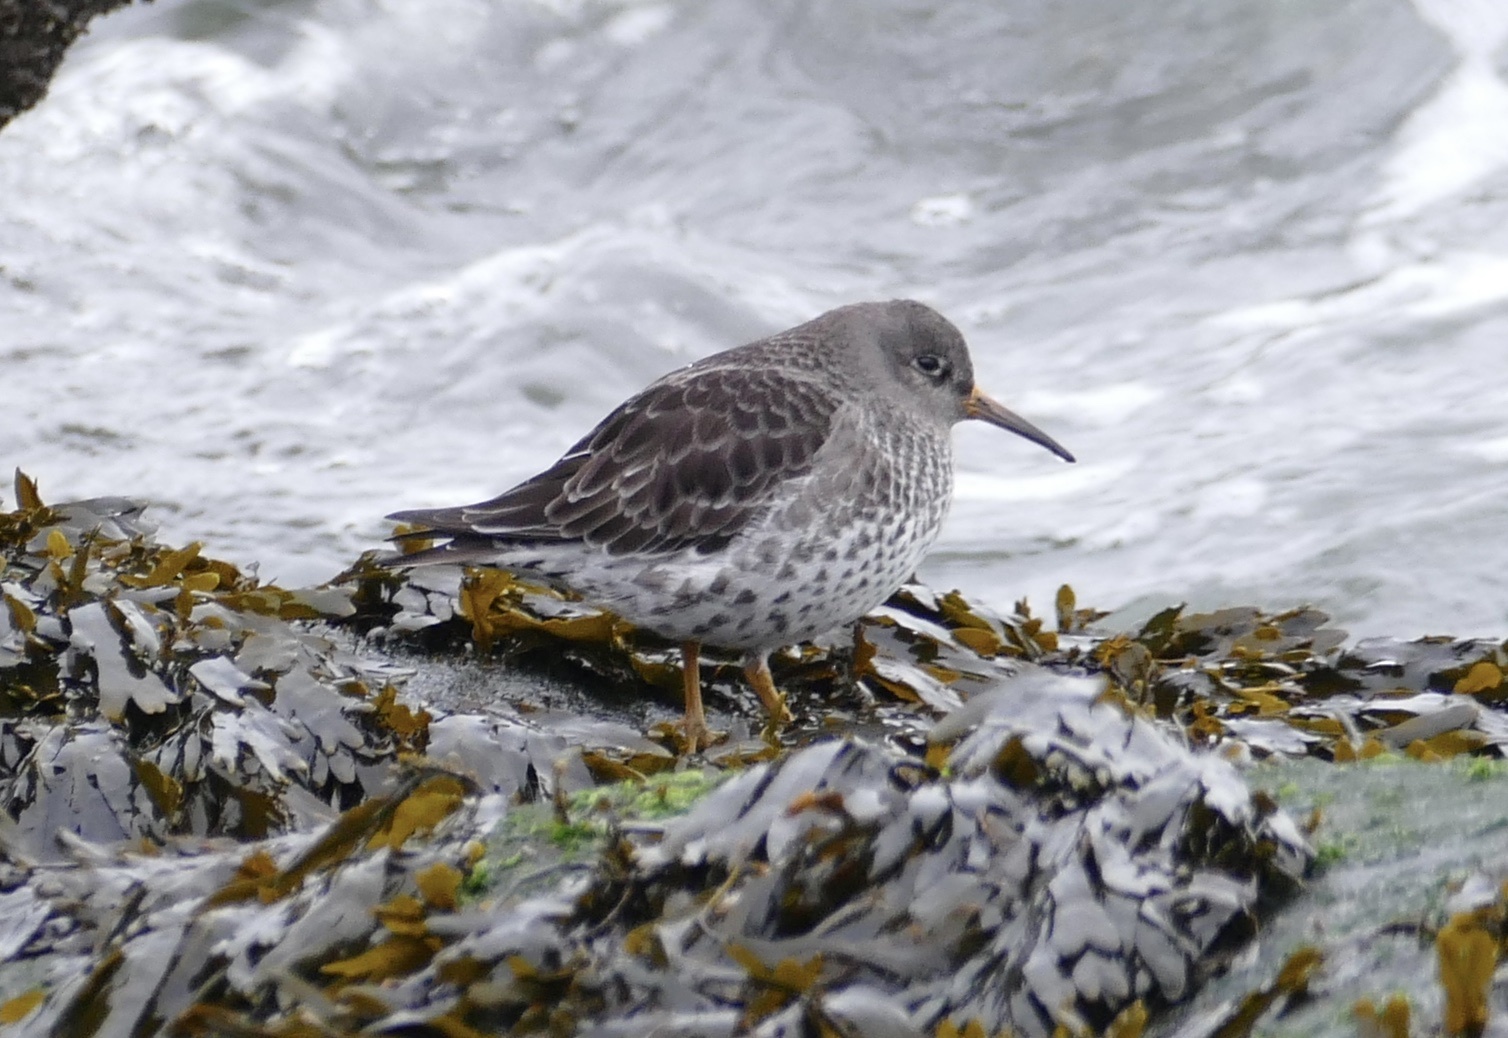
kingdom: Animalia
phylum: Chordata
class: Aves
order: Charadriiformes
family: Scolopacidae
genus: Calidris
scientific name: Calidris maritima
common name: Purple sandpiper
